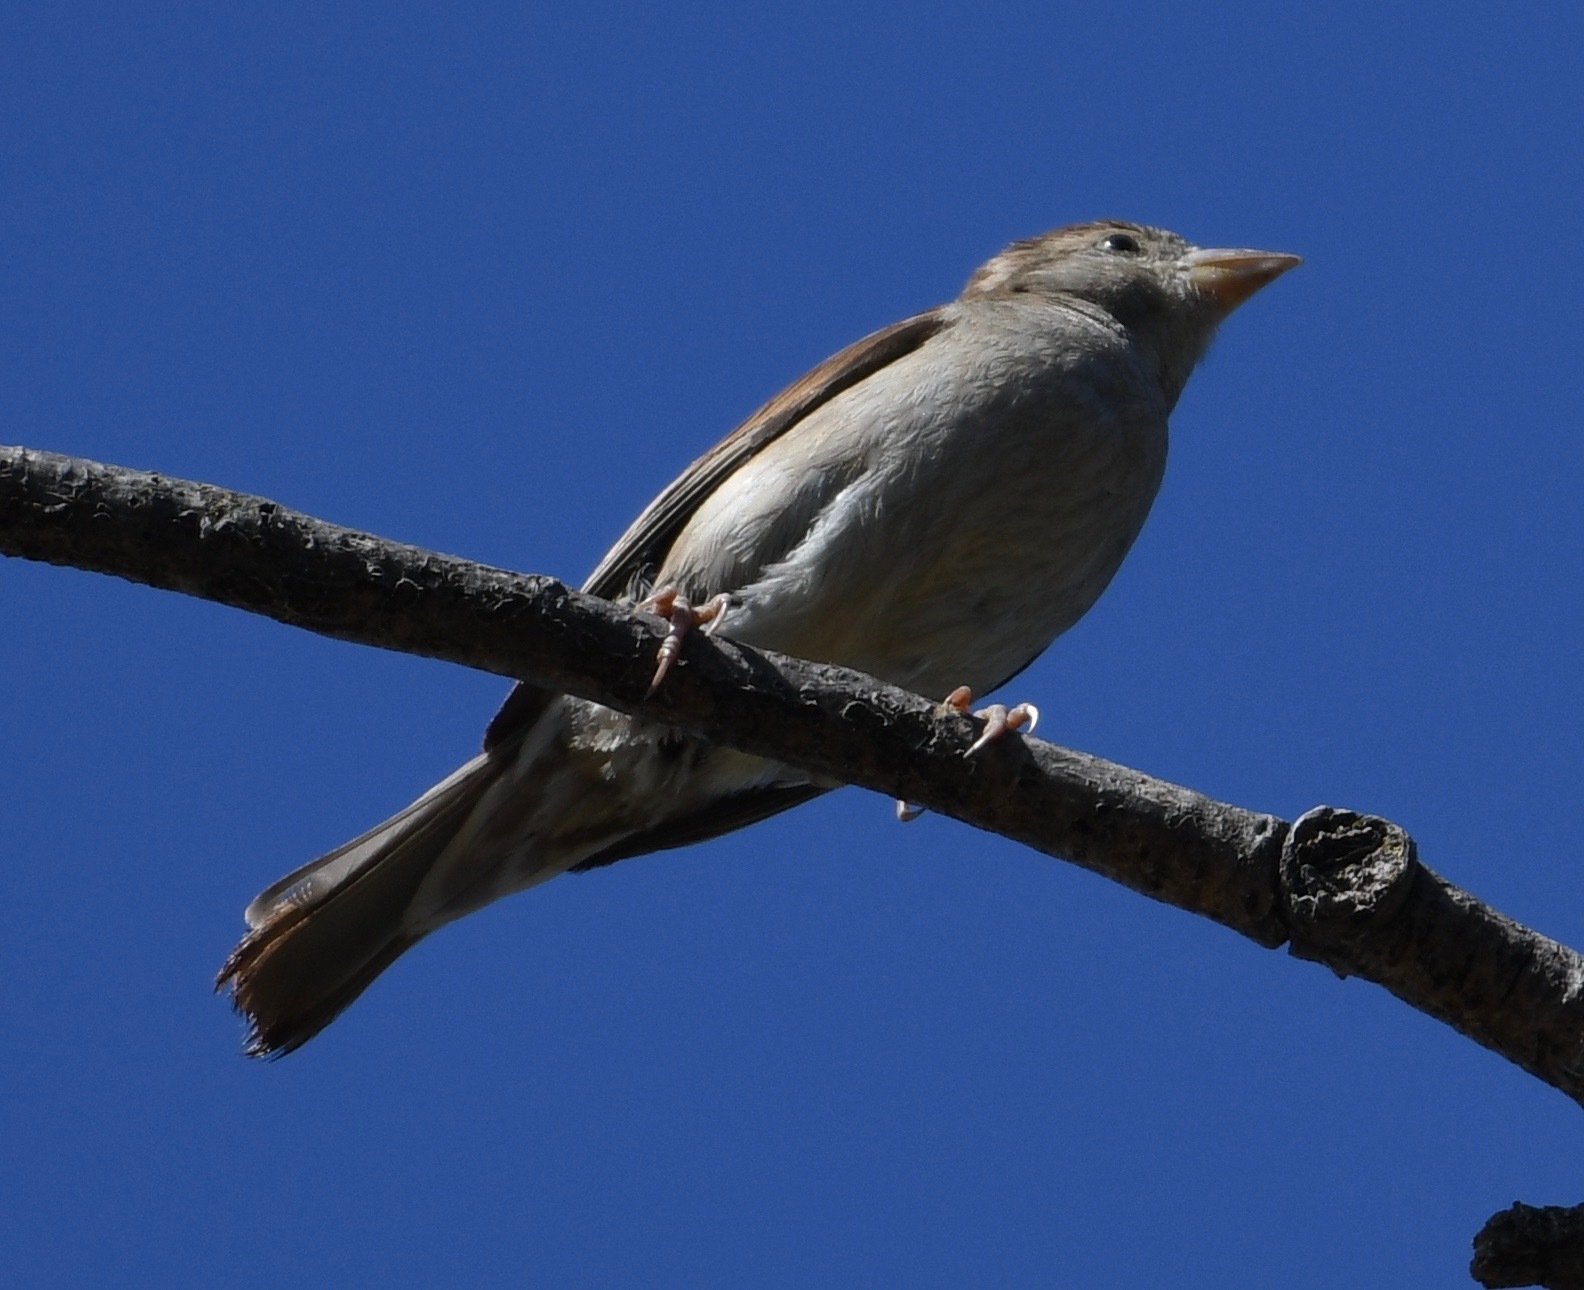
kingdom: Animalia
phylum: Chordata
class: Aves
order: Passeriformes
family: Passeridae
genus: Passer
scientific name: Passer domesticus
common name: House sparrow
